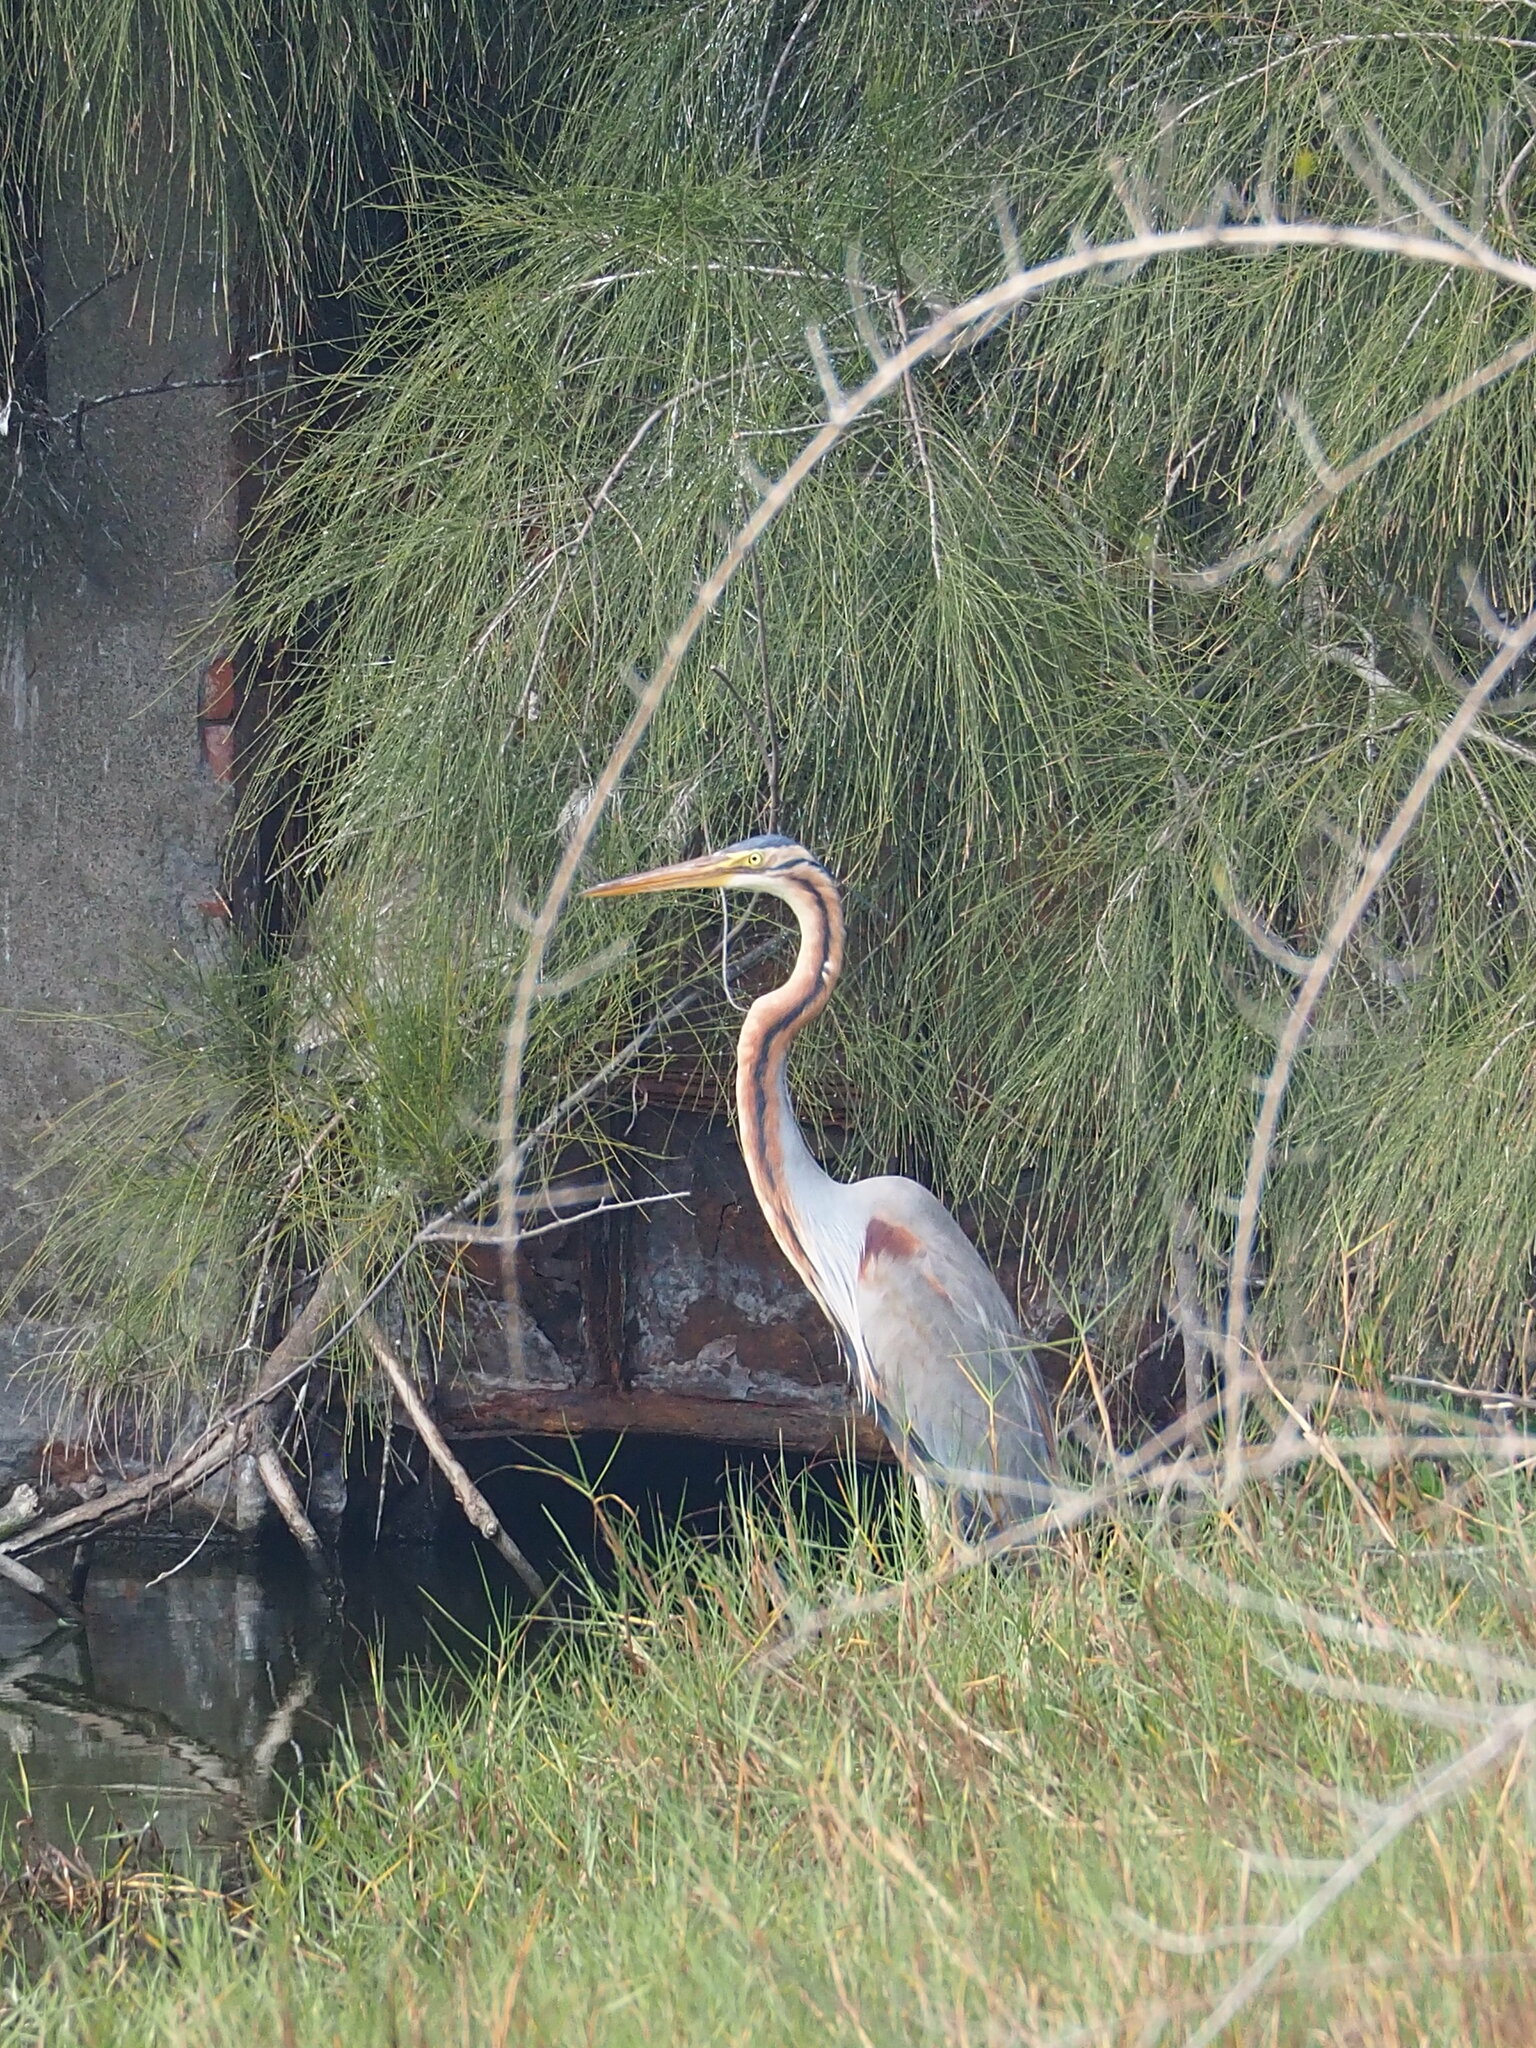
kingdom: Animalia
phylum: Chordata
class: Aves
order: Pelecaniformes
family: Ardeidae
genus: Ardea
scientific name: Ardea purpurea
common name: Purple heron
